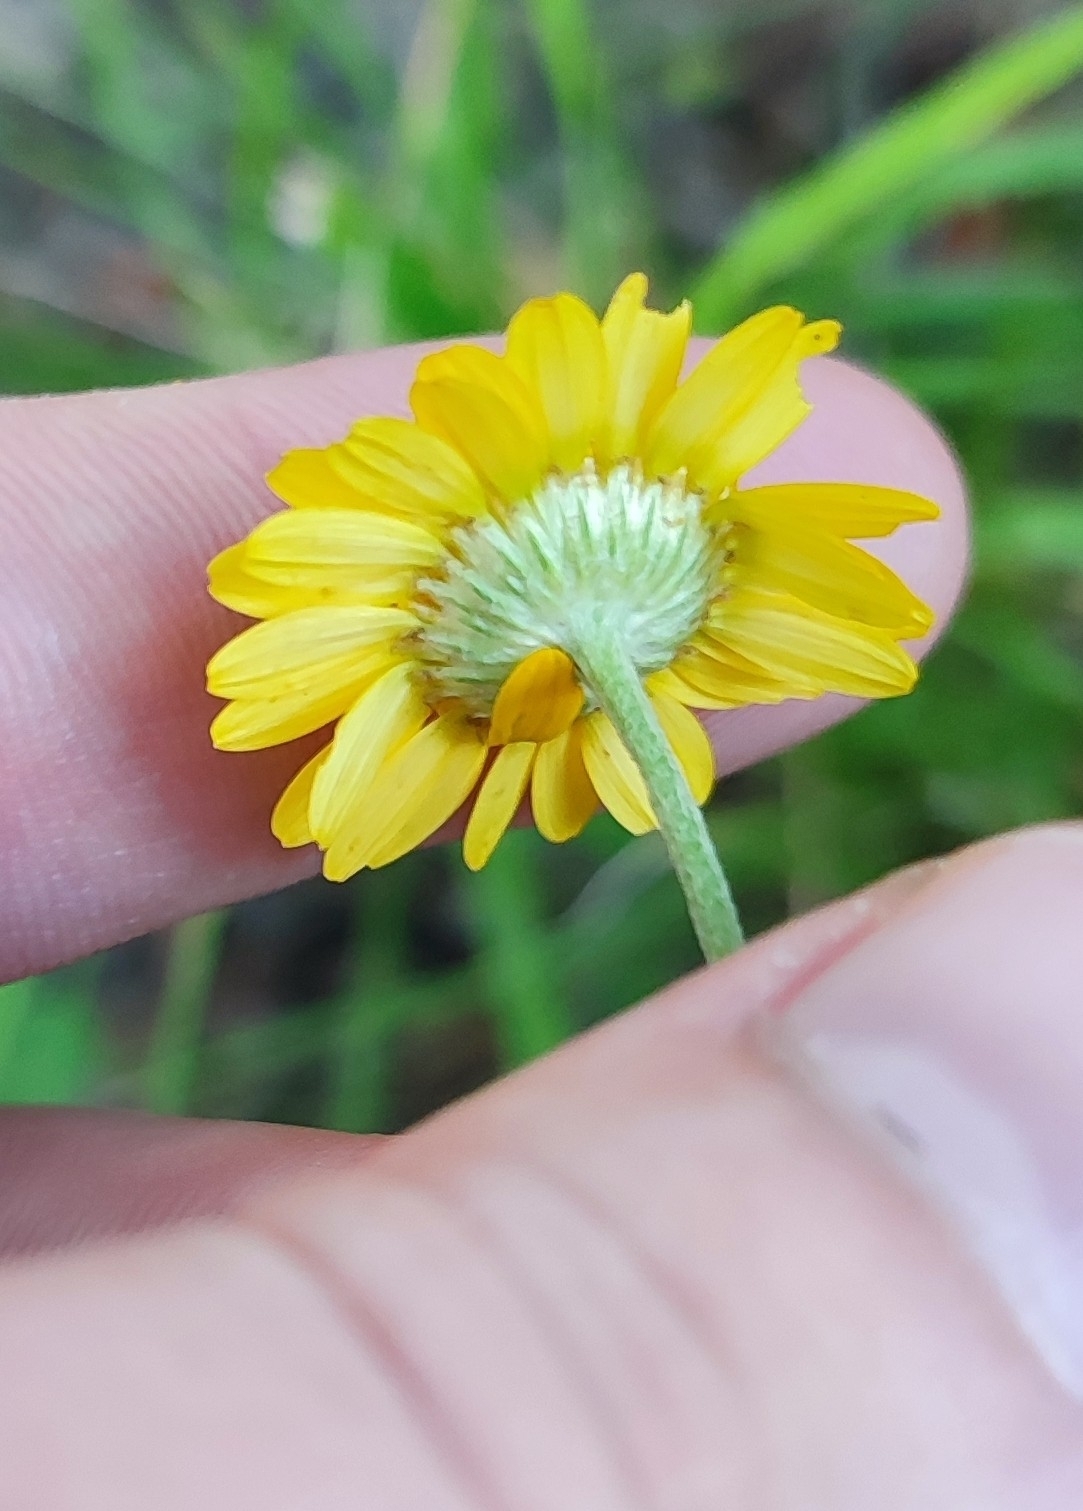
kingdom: Plantae
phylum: Tracheophyta
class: Magnoliopsida
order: Asterales
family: Asteraceae
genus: Cota
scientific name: Cota tinctoria
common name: Golden chamomile
